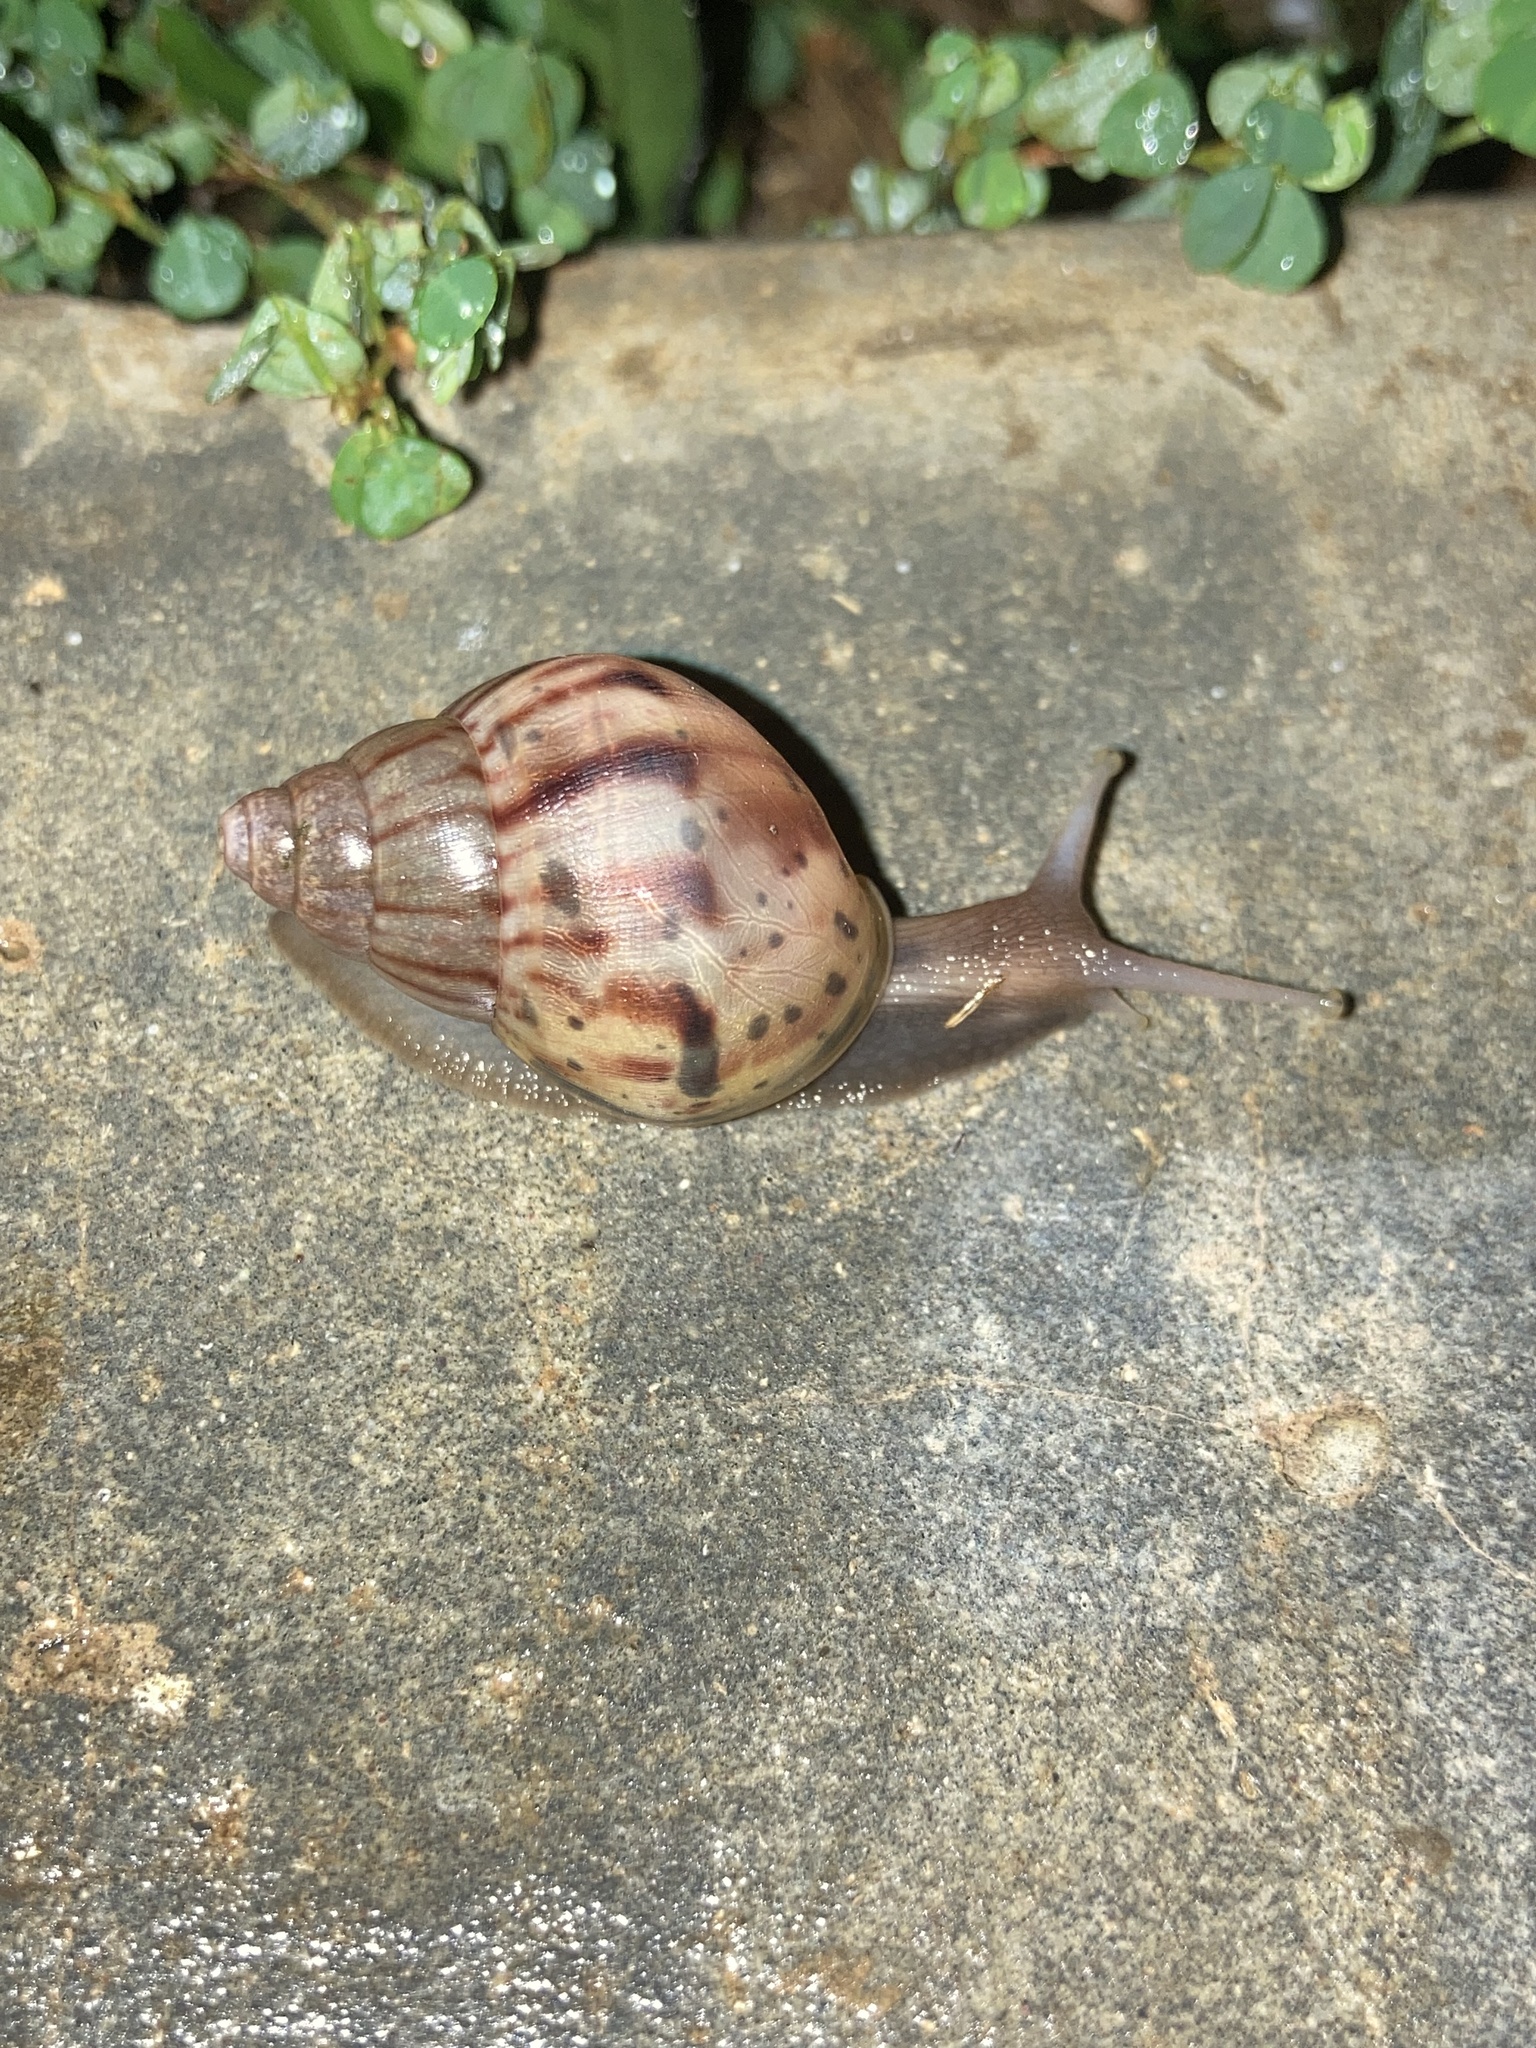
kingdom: Animalia
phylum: Mollusca
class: Gastropoda
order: Stylommatophora
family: Achatinidae
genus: Lissachatina
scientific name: Lissachatina fulica
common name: Giant african snail
